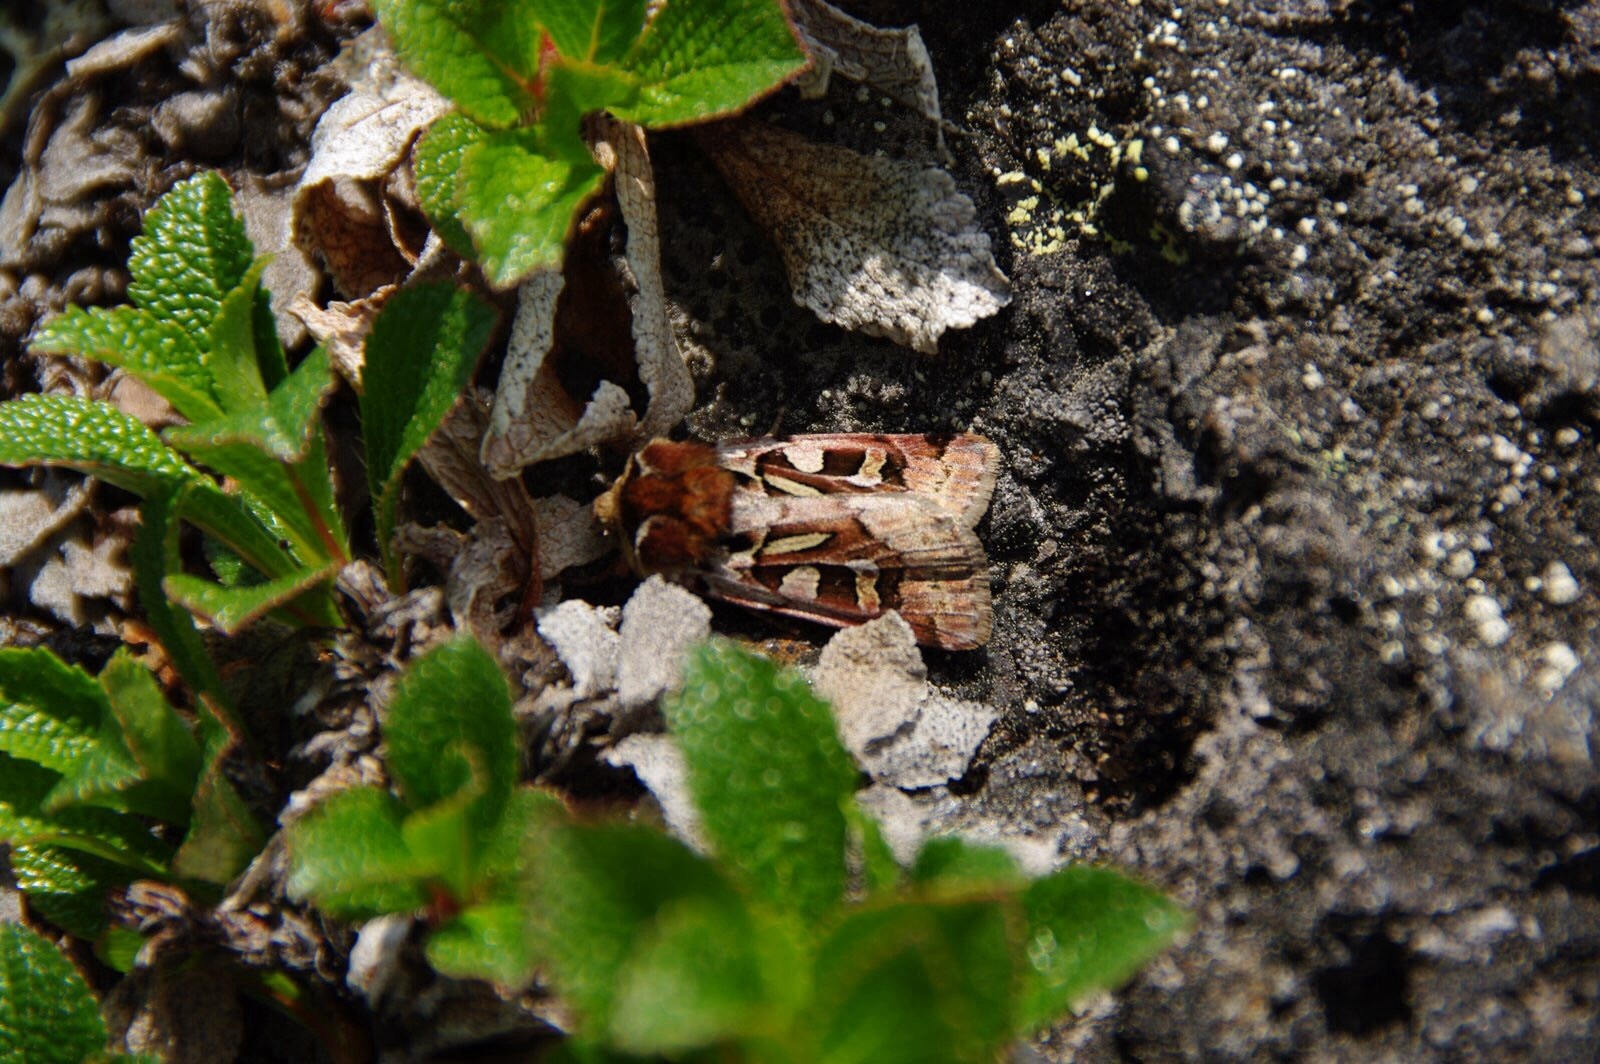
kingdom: Animalia
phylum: Arthropoda
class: Insecta
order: Lepidoptera
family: Noctuidae
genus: Xestia
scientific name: Xestia scropulana
